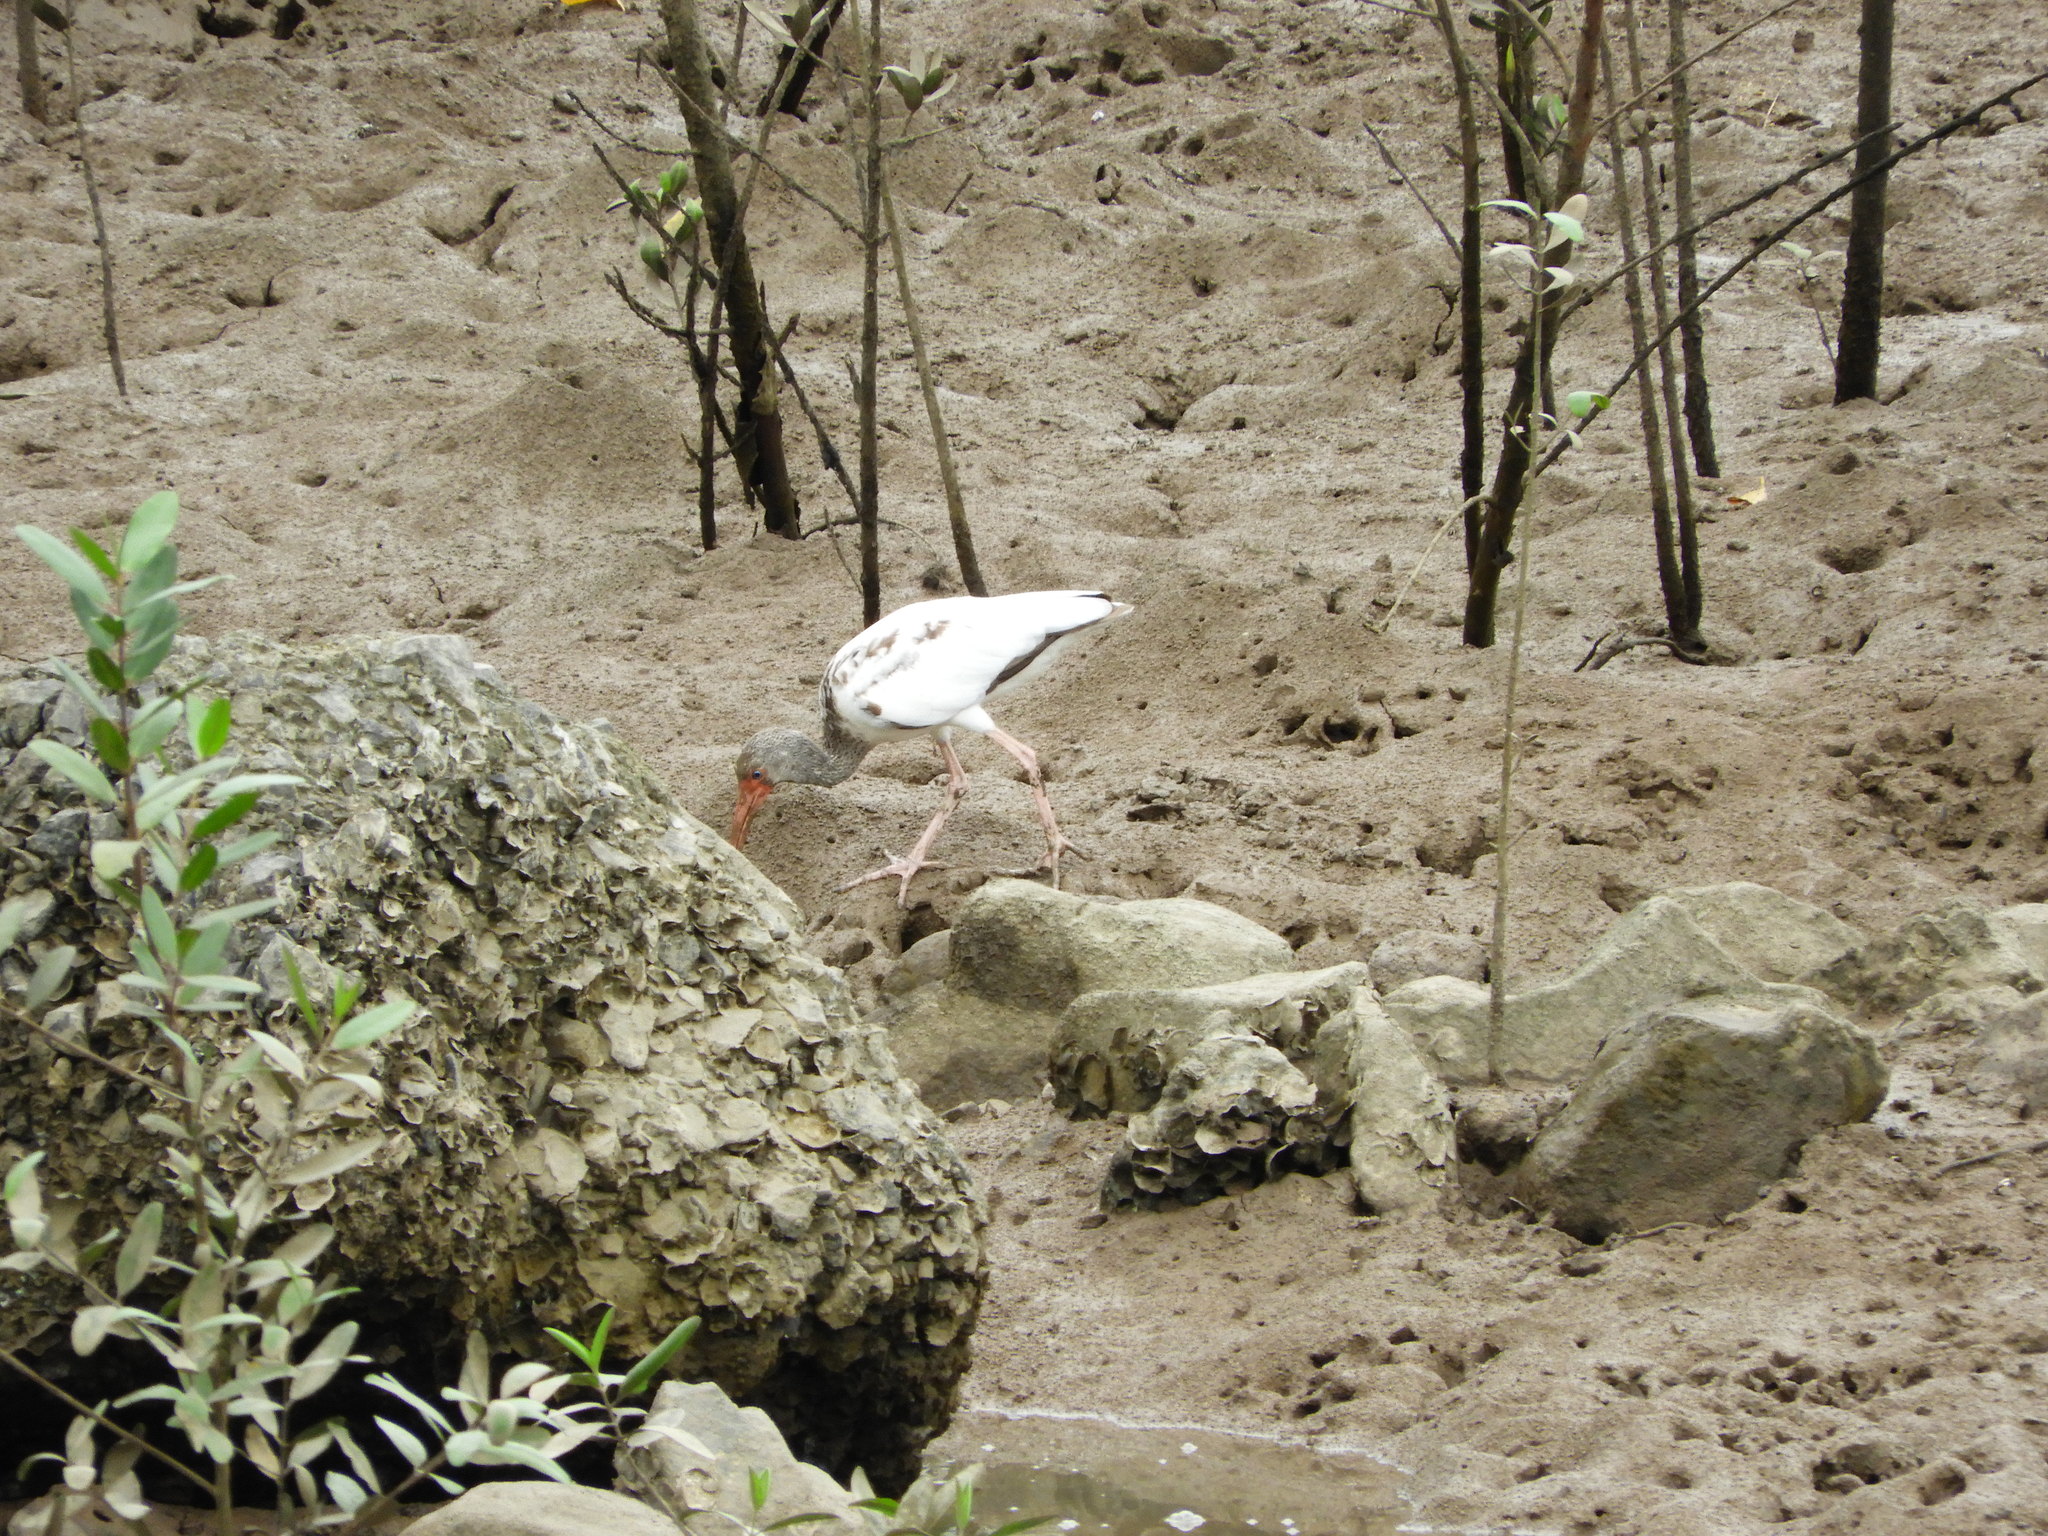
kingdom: Animalia
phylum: Chordata
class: Aves
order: Pelecaniformes
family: Threskiornithidae
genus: Eudocimus
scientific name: Eudocimus albus
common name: White ibis
